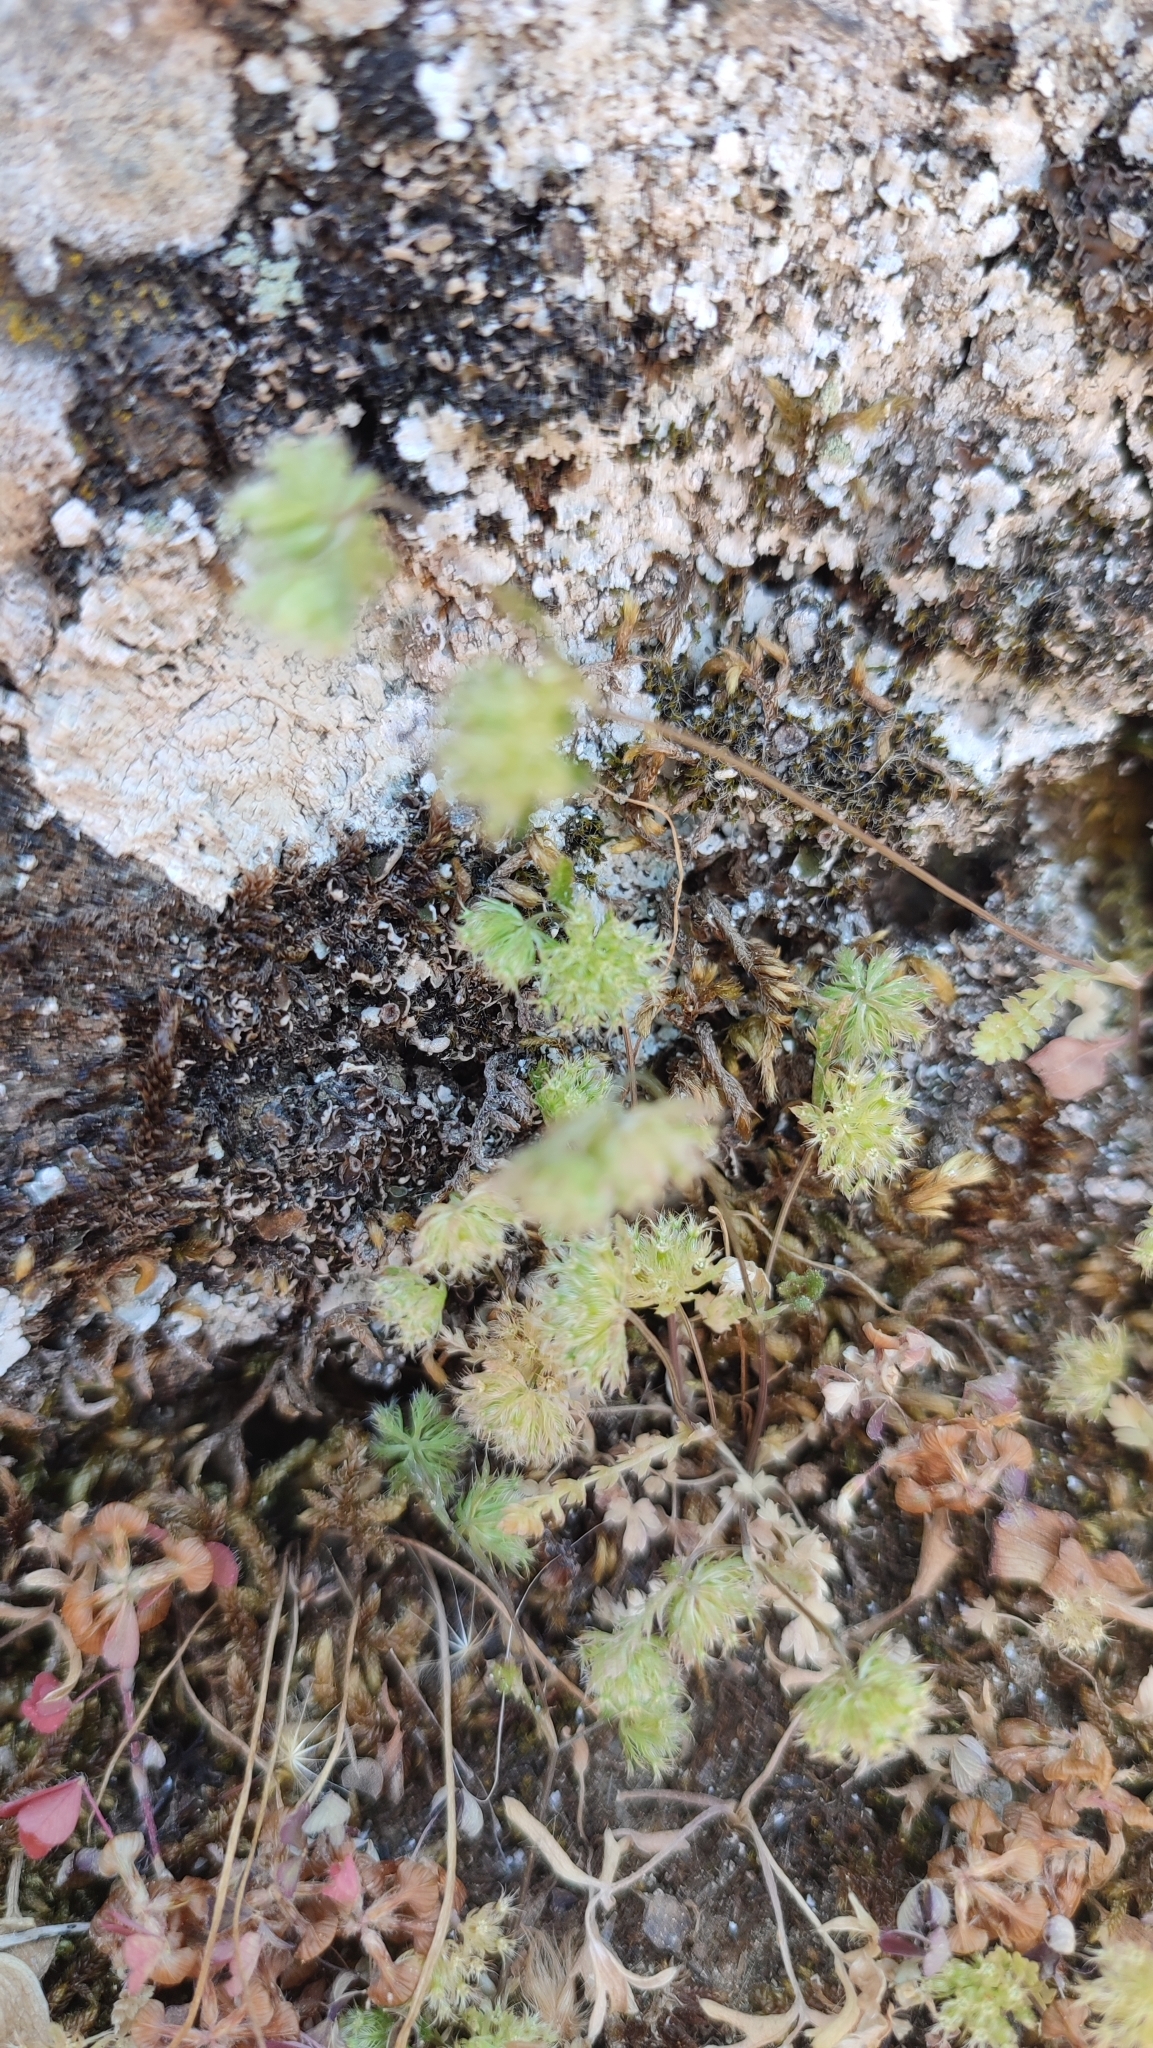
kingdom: Plantae
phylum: Tracheophyta
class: Magnoliopsida
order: Apiales
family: Apiaceae
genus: Lagoecia
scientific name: Lagoecia cuminoides
